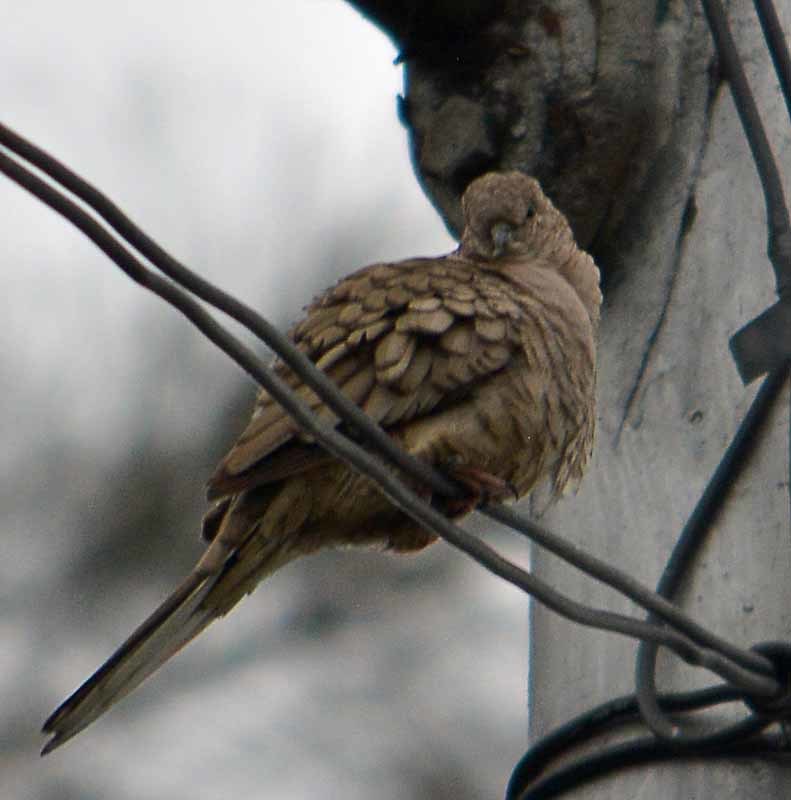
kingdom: Animalia
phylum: Chordata
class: Aves
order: Columbiformes
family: Columbidae
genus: Columbina
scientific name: Columbina inca
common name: Inca dove
